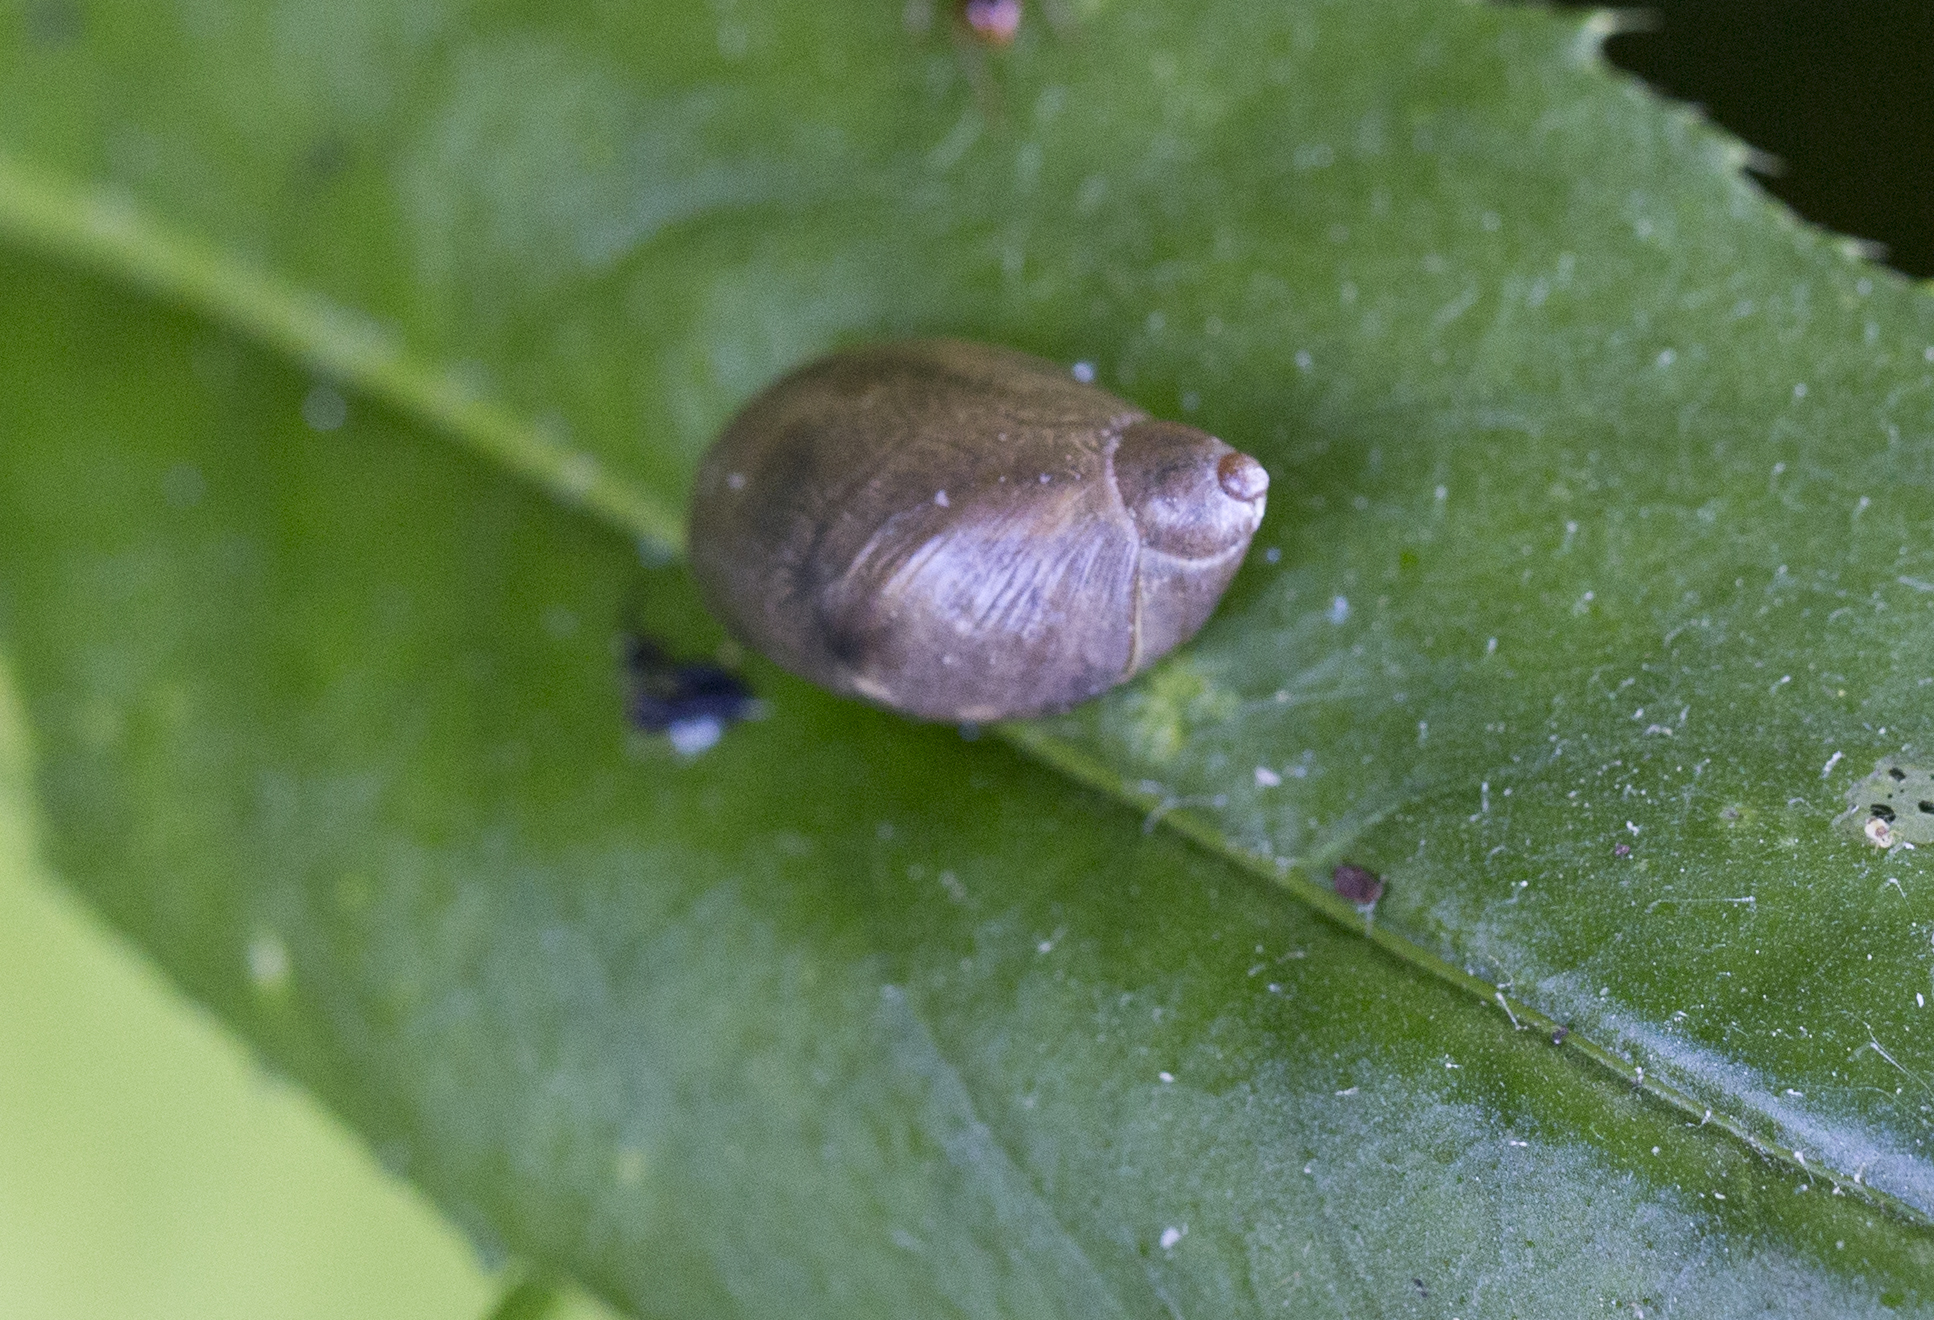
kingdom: Animalia
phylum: Mollusca
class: Gastropoda
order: Stylommatophora
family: Succineidae
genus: Succinea
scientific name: Succinea putris
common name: European ambersnail
